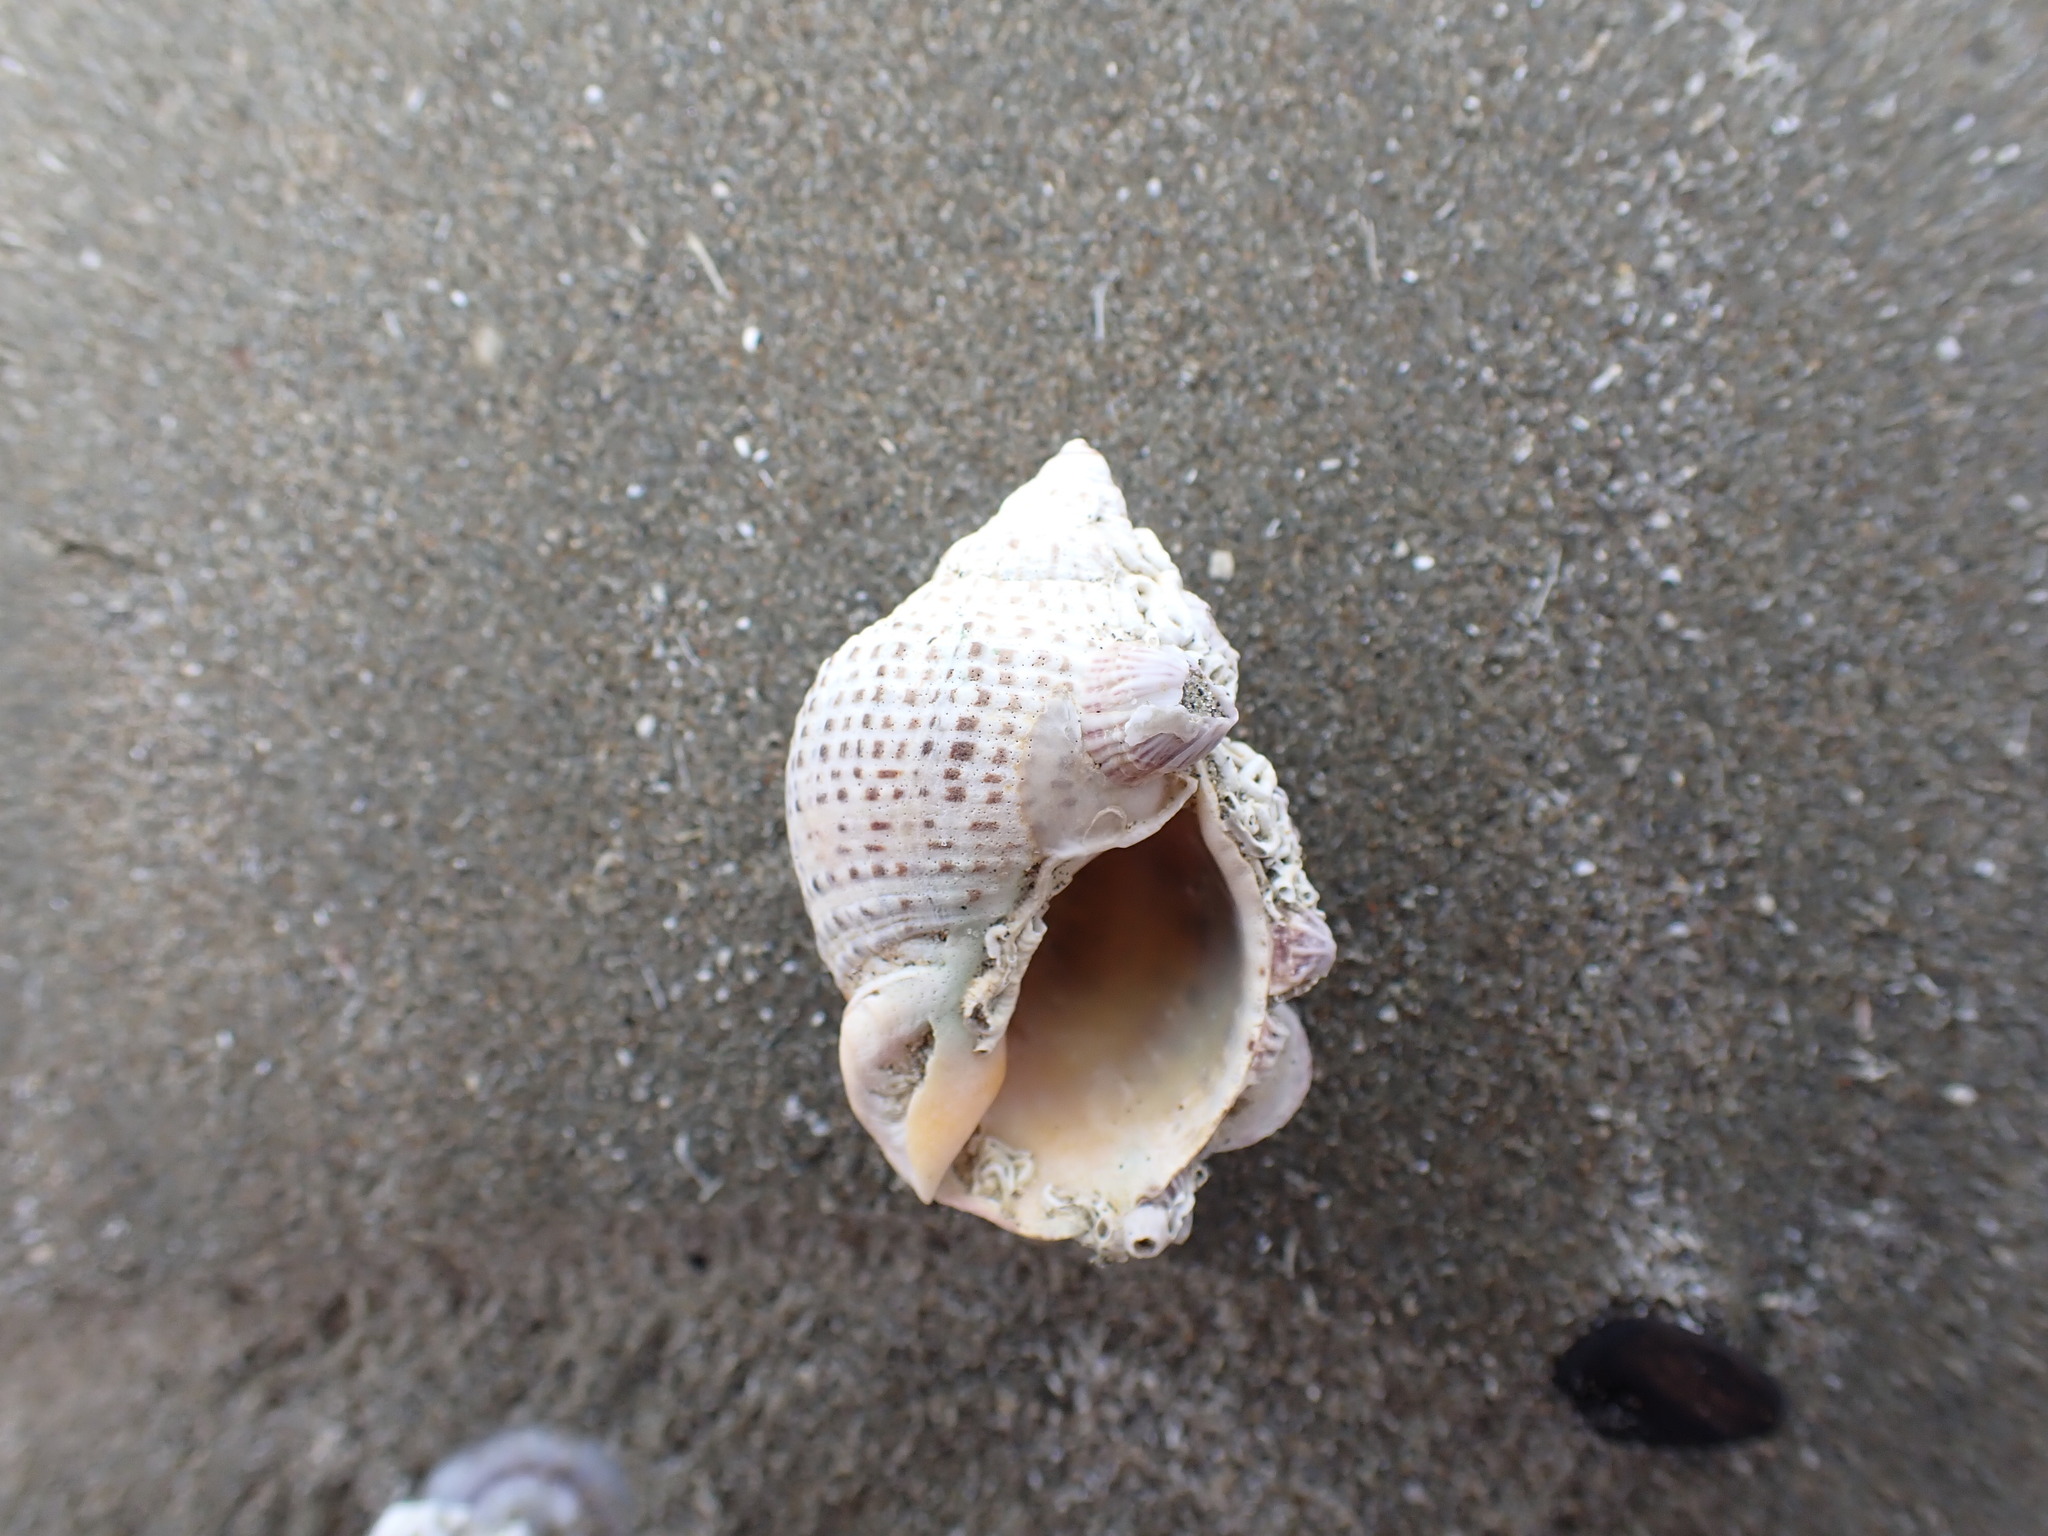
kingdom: Animalia
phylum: Mollusca
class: Gastropoda
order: Neogastropoda
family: Cominellidae
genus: Cominella
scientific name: Cominella adspersa
